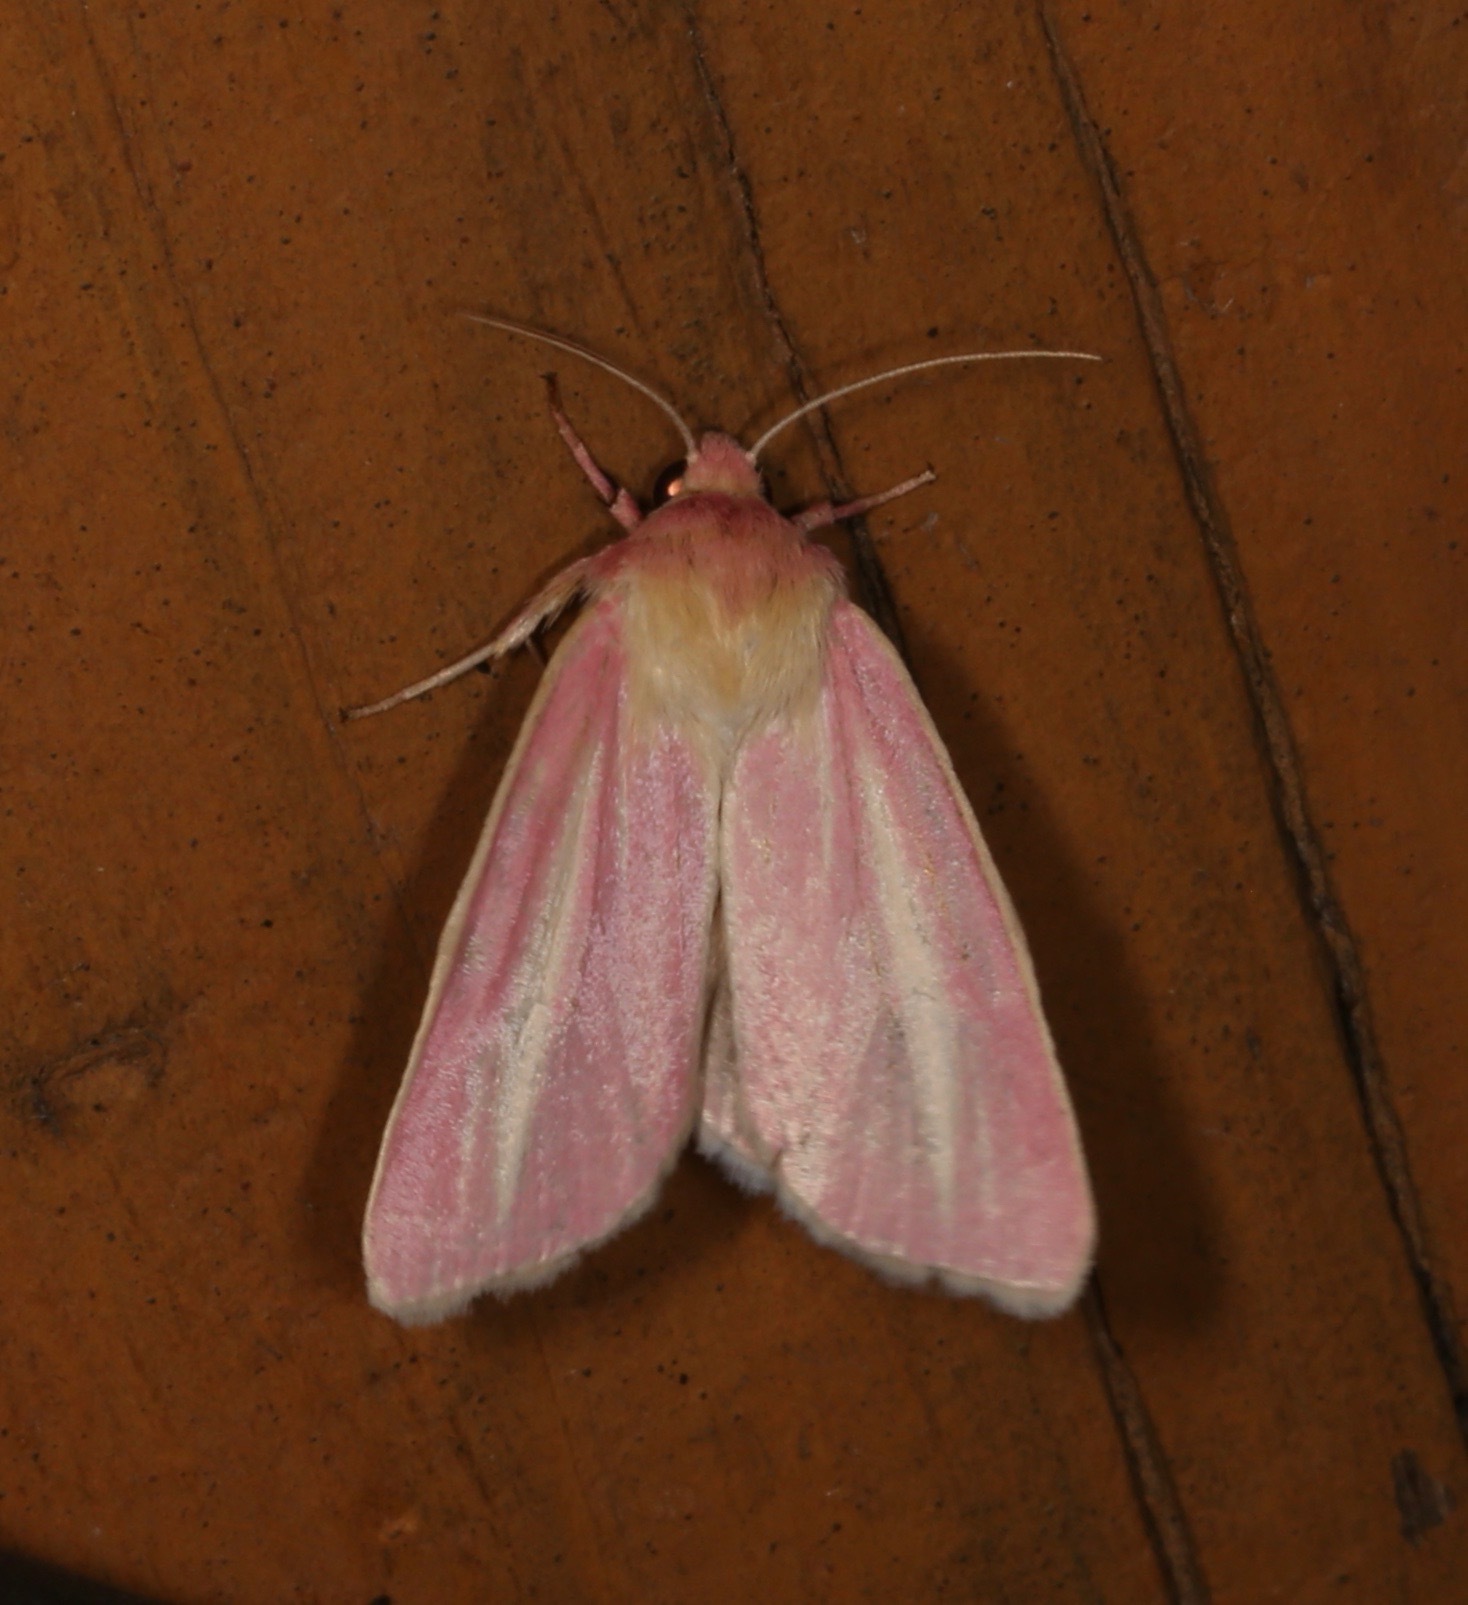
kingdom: Animalia
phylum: Arthropoda
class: Insecta
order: Lepidoptera
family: Noctuidae
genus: Heliocheilus
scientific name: Heliocheilus julia
